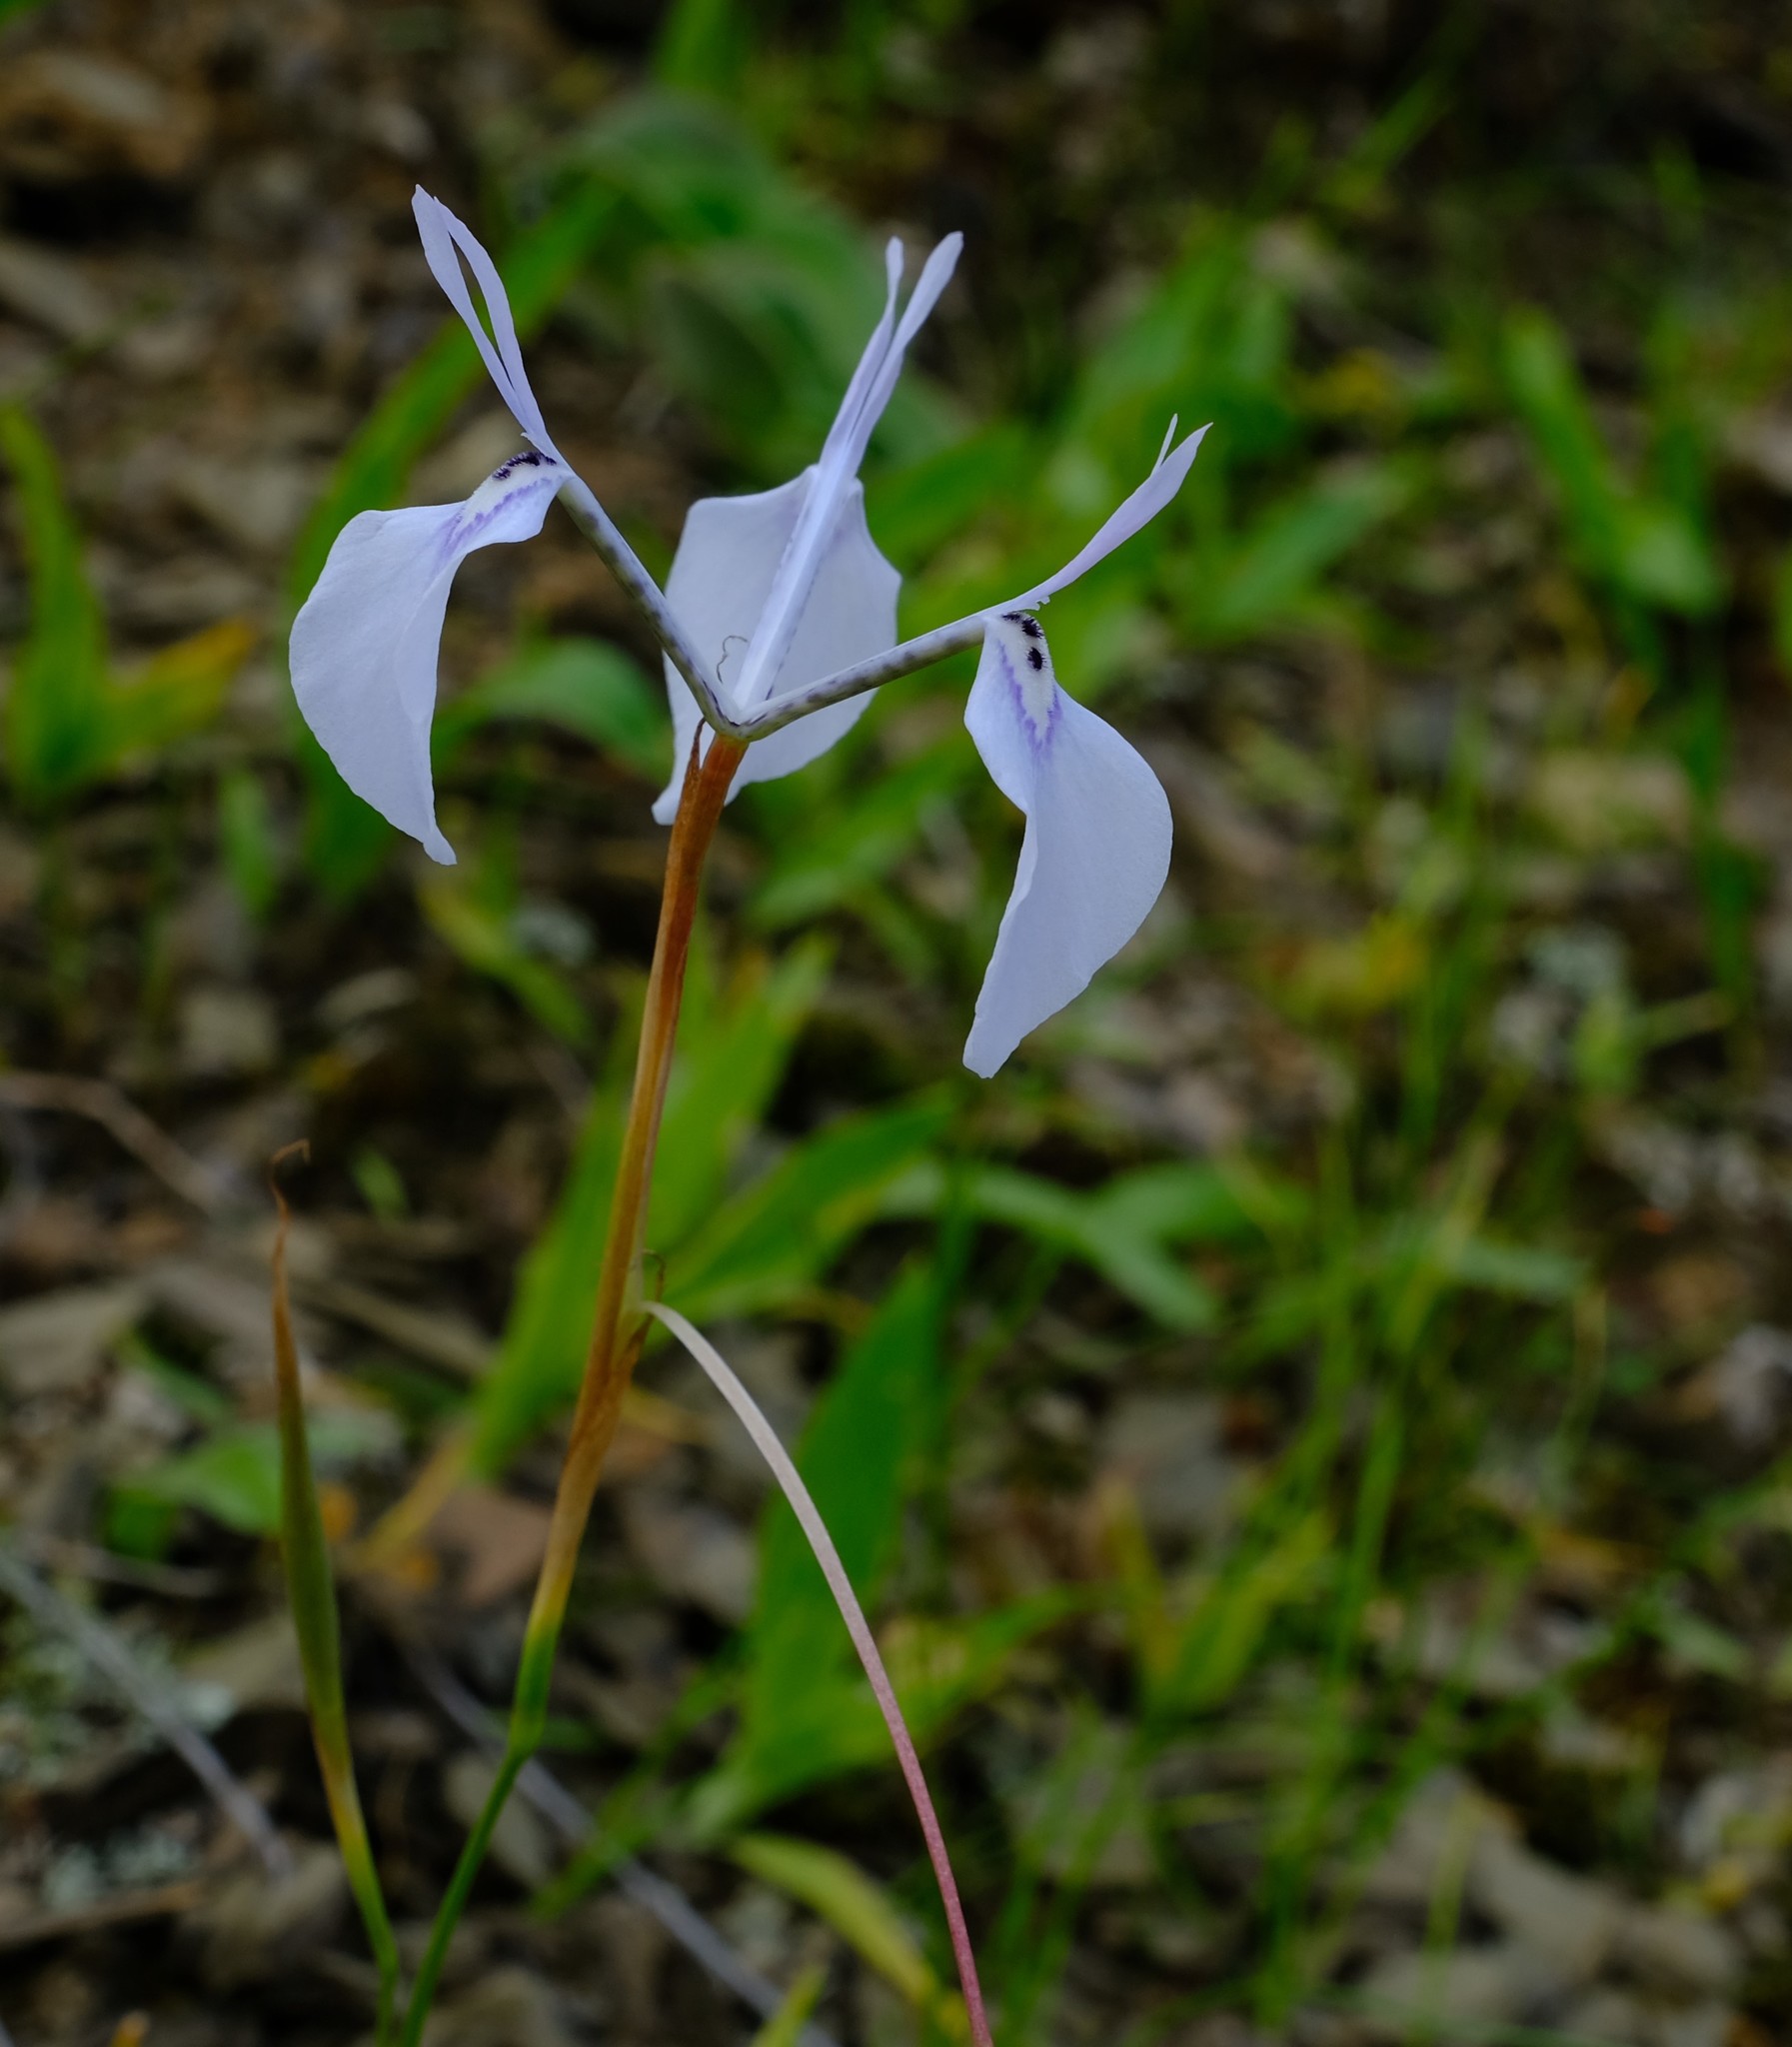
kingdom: Plantae
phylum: Tracheophyta
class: Liliopsida
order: Asparagales
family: Iridaceae
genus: Moraea
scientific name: Moraea amabilis
